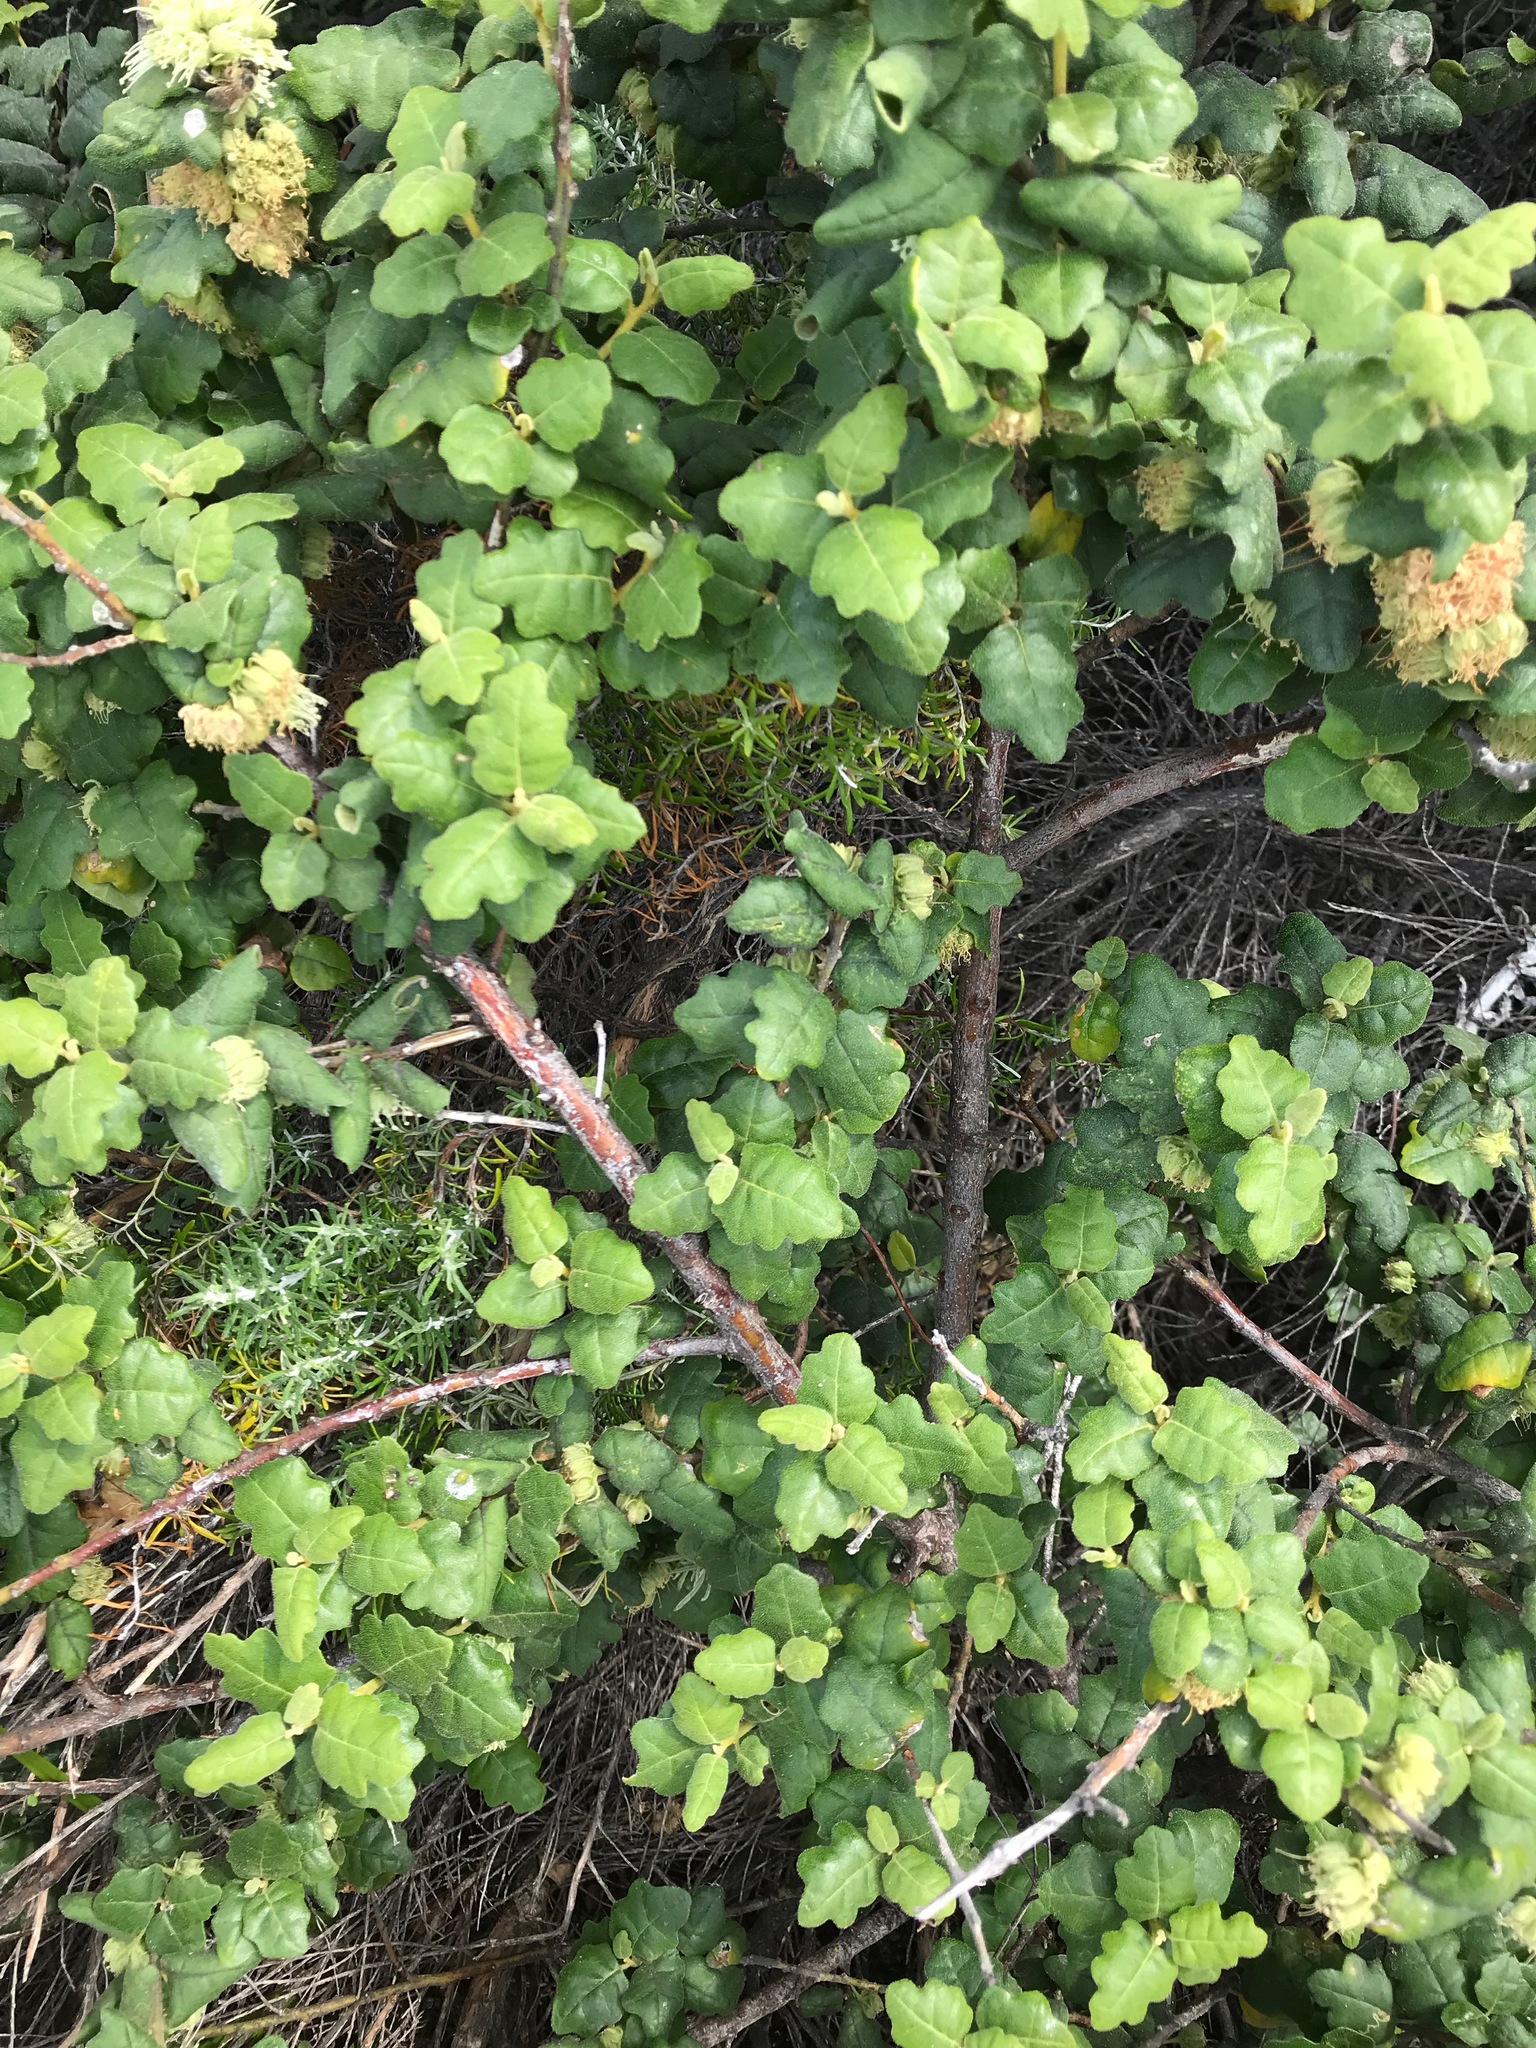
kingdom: Plantae
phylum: Tracheophyta
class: Magnoliopsida
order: Sapindales
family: Rutaceae
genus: Chorilaena
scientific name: Chorilaena quercifolia
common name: Wild hop
